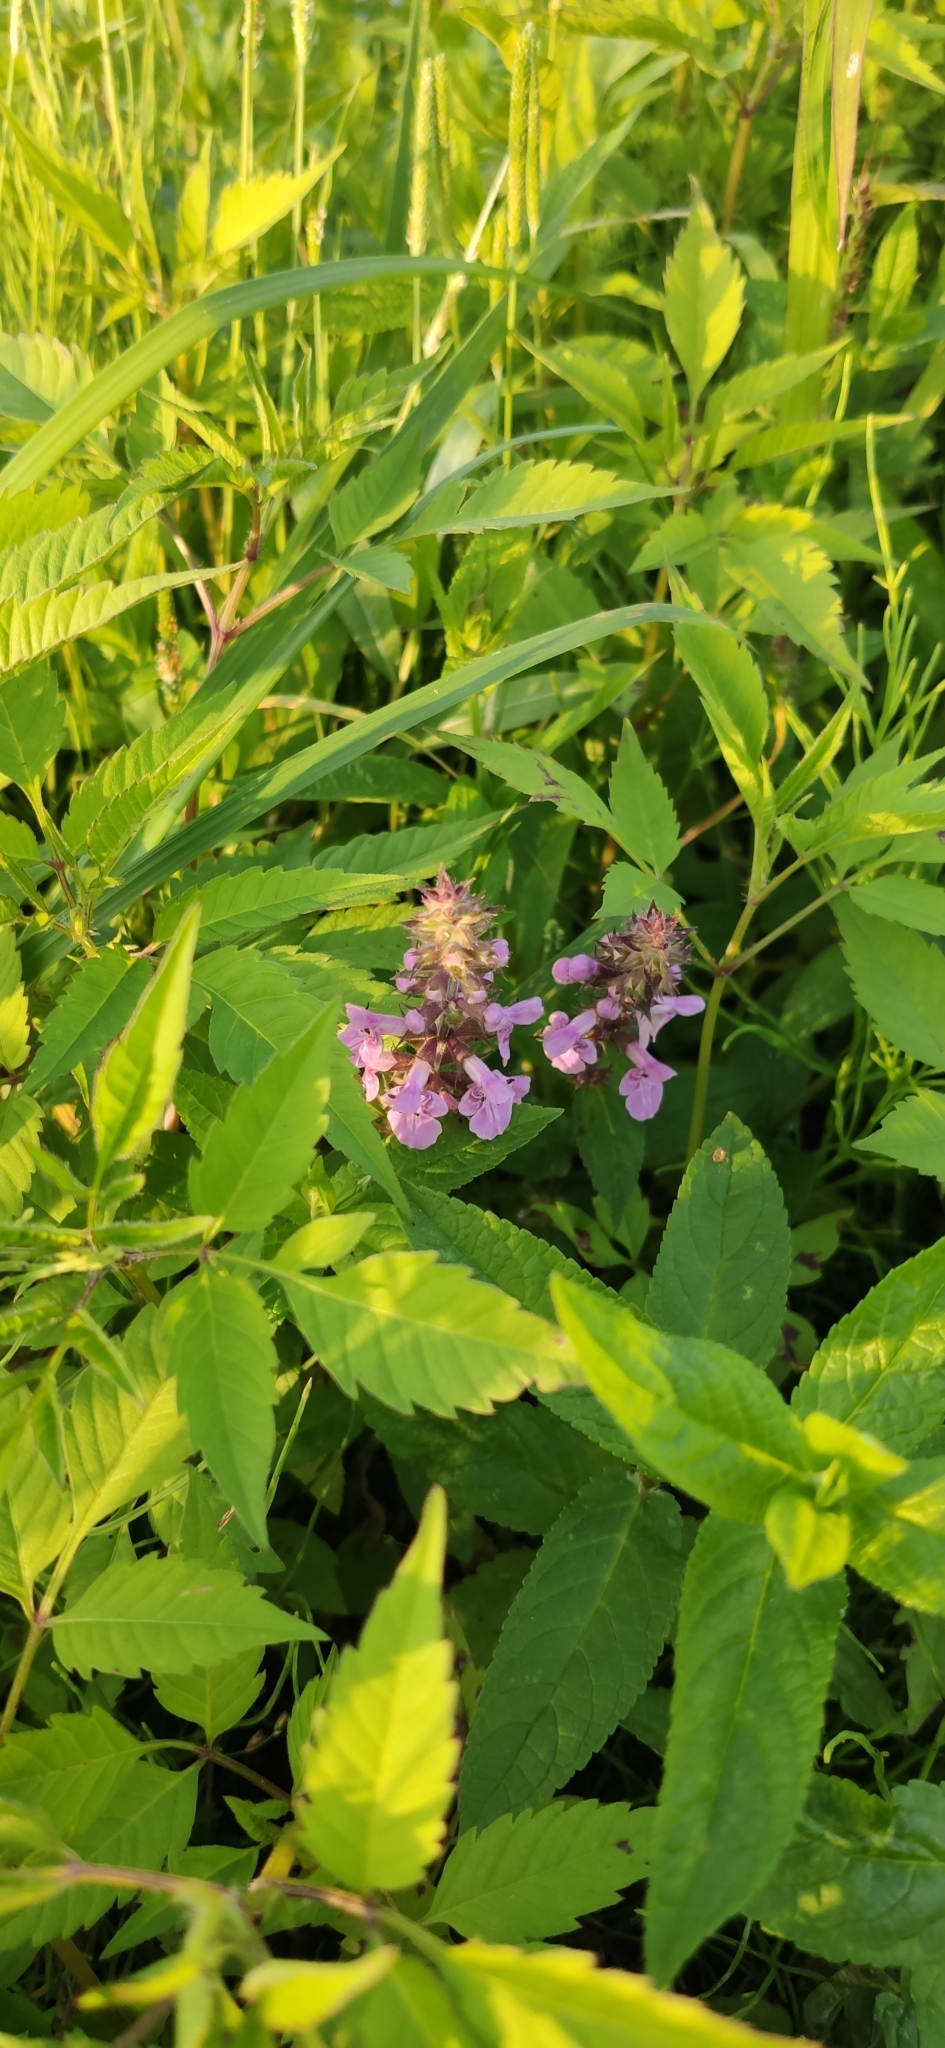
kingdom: Plantae
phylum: Tracheophyta
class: Magnoliopsida
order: Lamiales
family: Lamiaceae
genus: Stachys
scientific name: Stachys palustris
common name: Marsh woundwort
